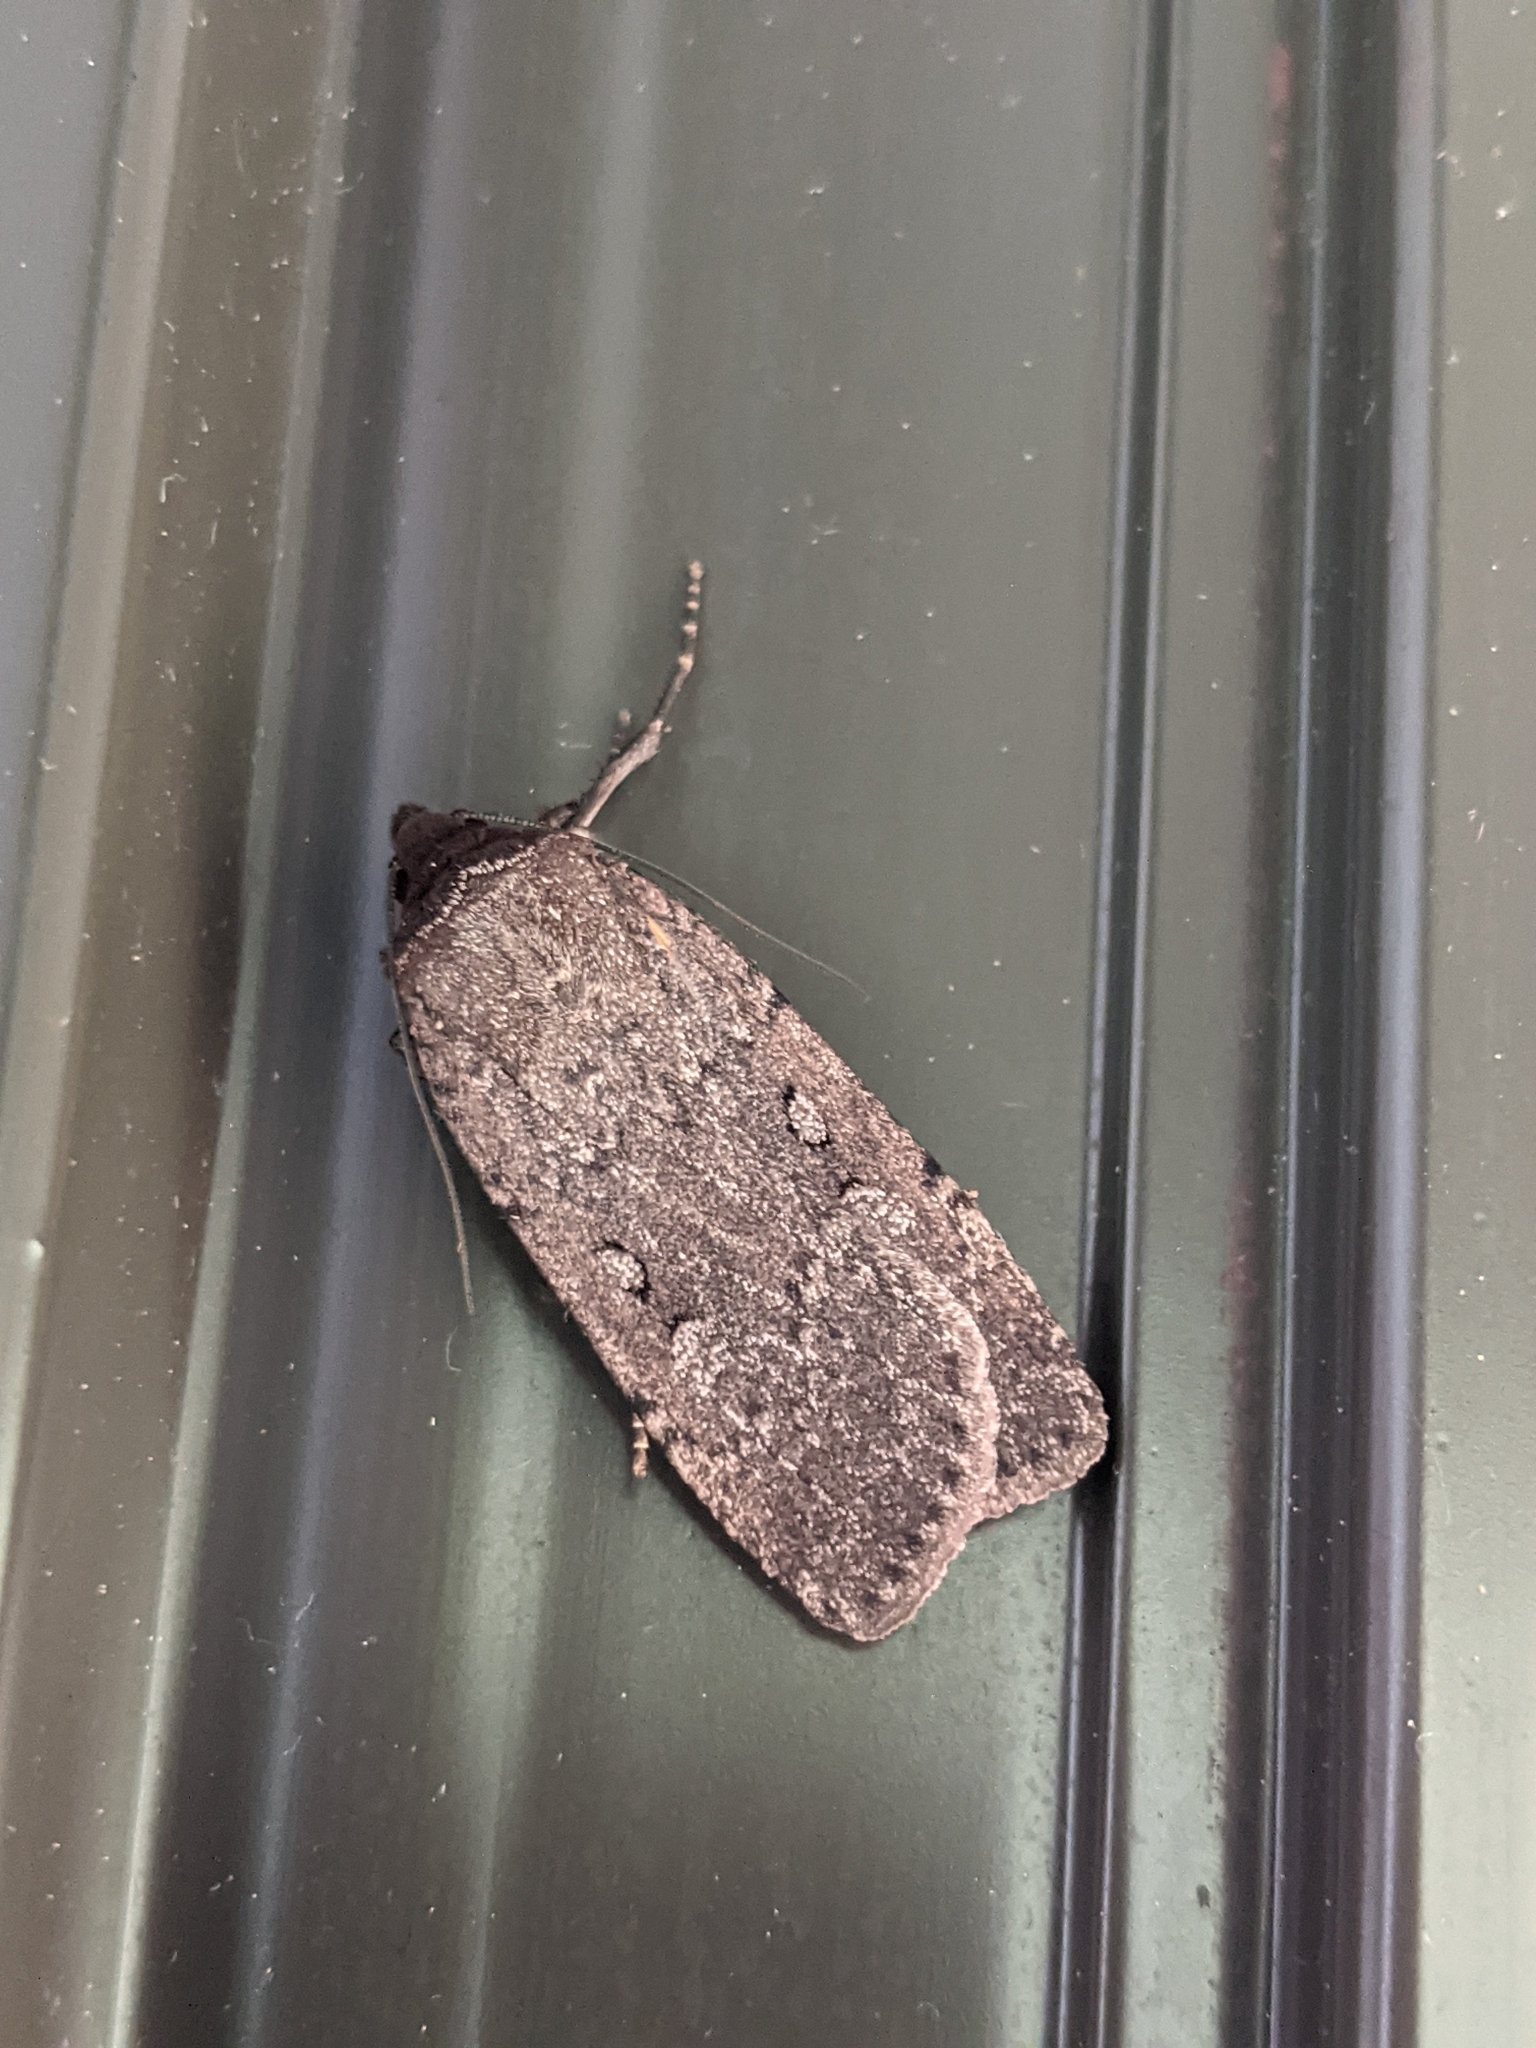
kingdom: Animalia
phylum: Arthropoda
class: Insecta
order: Lepidoptera
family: Noctuidae
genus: Spaelotis
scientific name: Spaelotis clandestina
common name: Clandestine dart
